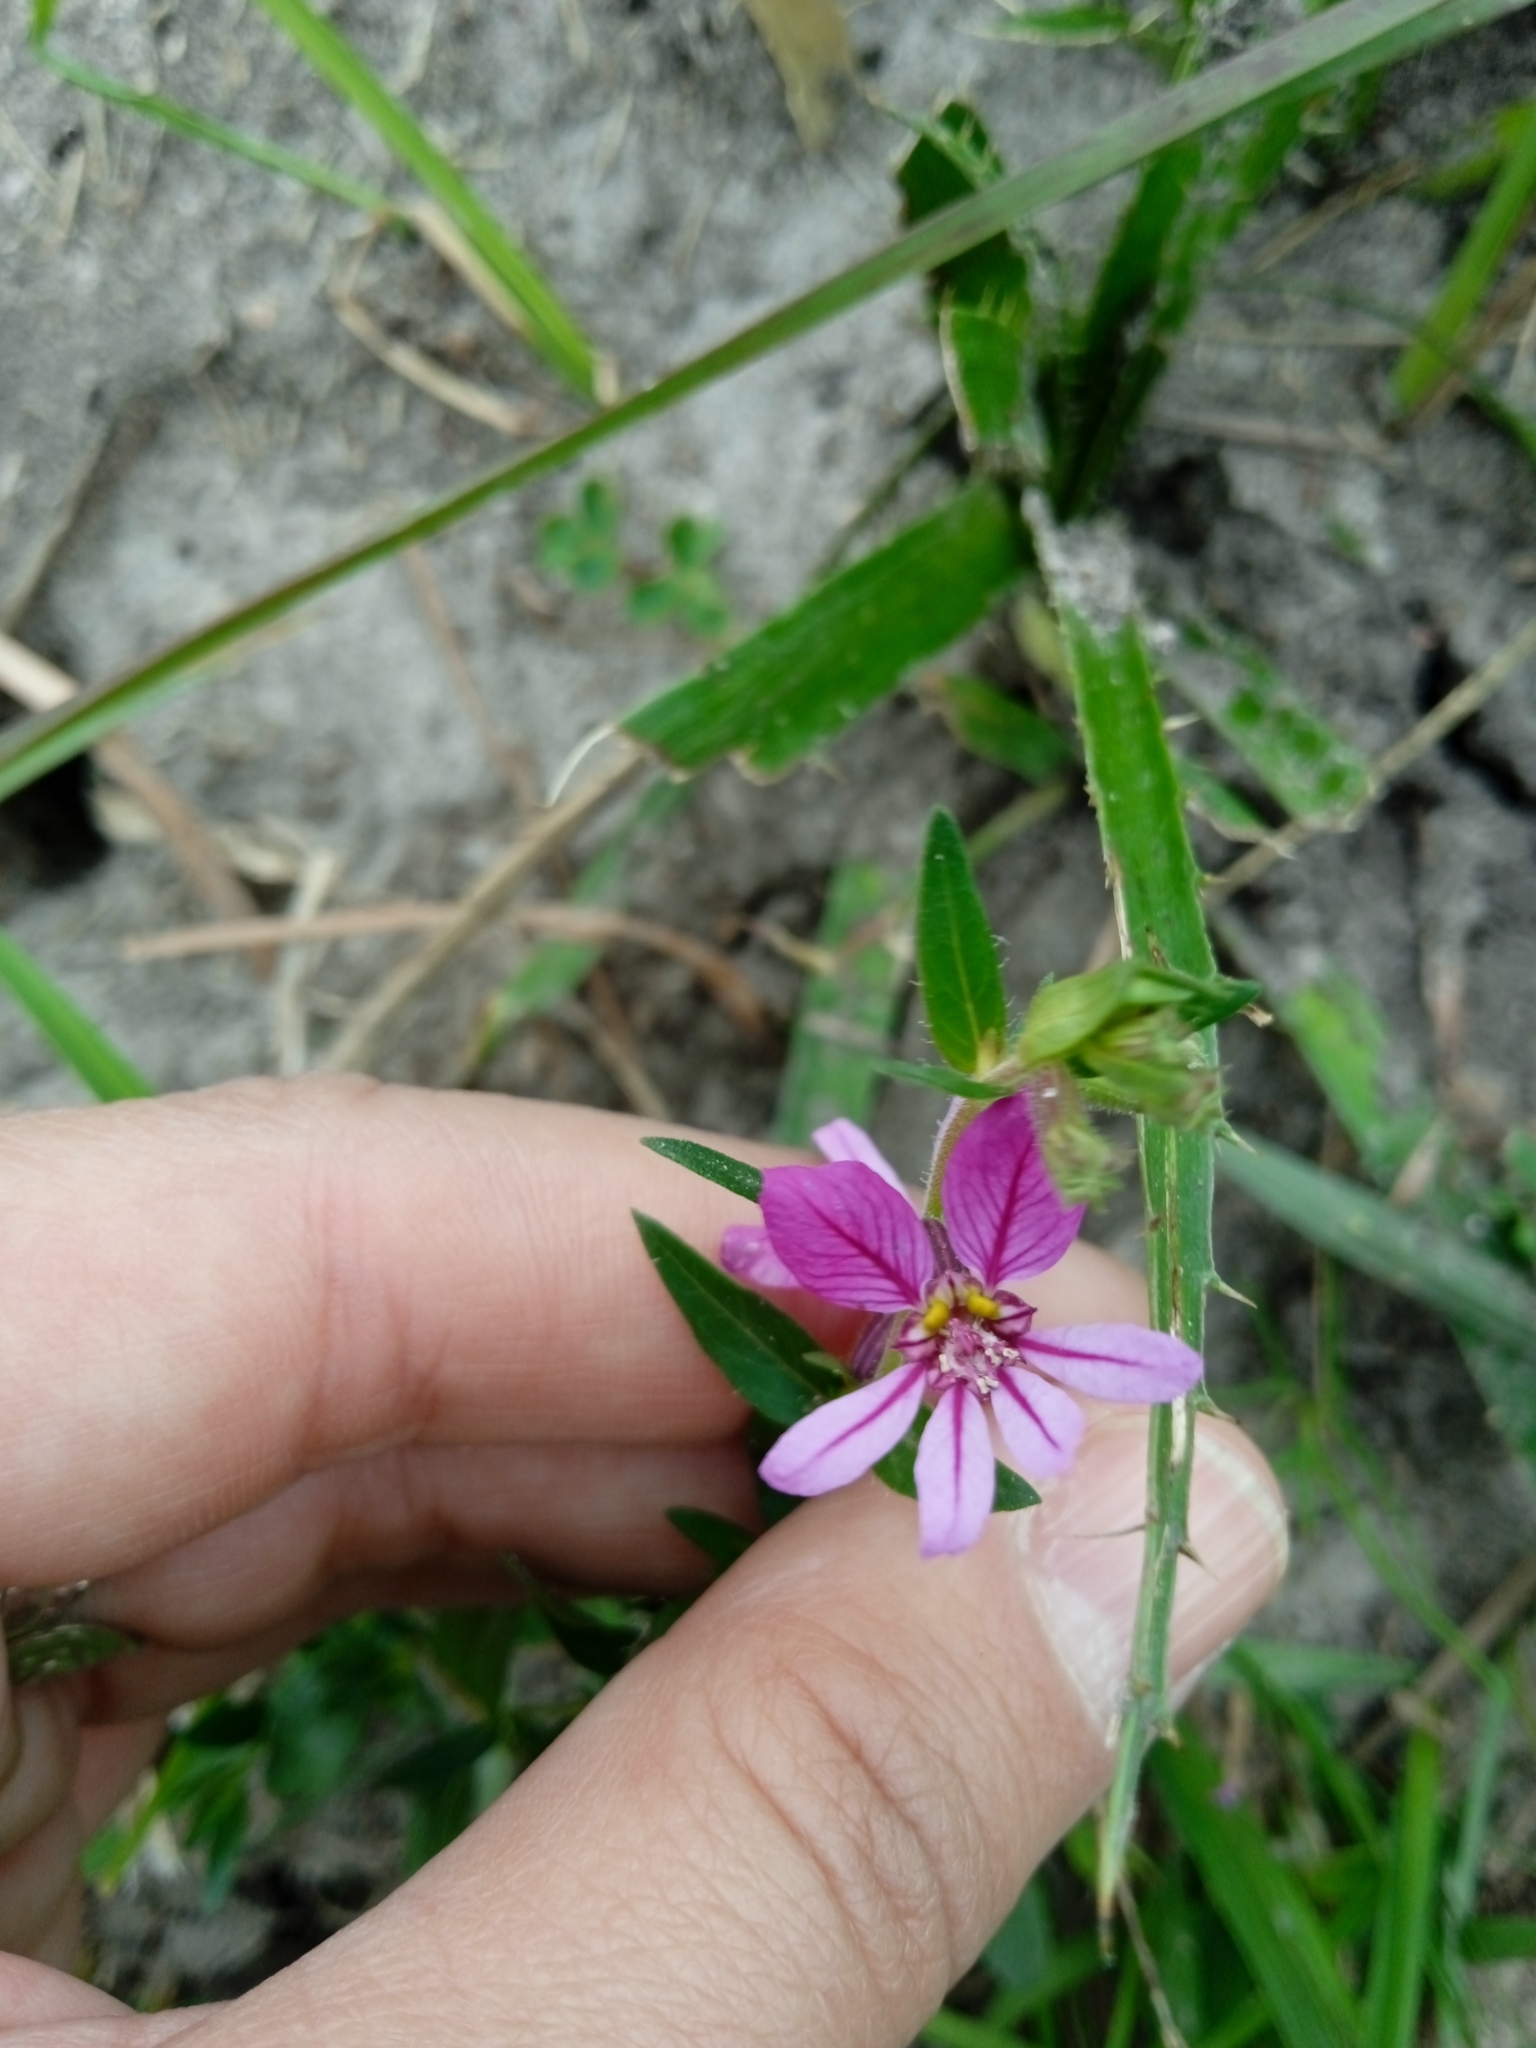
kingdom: Plantae
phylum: Tracheophyta
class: Magnoliopsida
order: Myrtales
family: Lythraceae
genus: Cuphea
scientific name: Cuphea glutinosa
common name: Sticky waxweed
